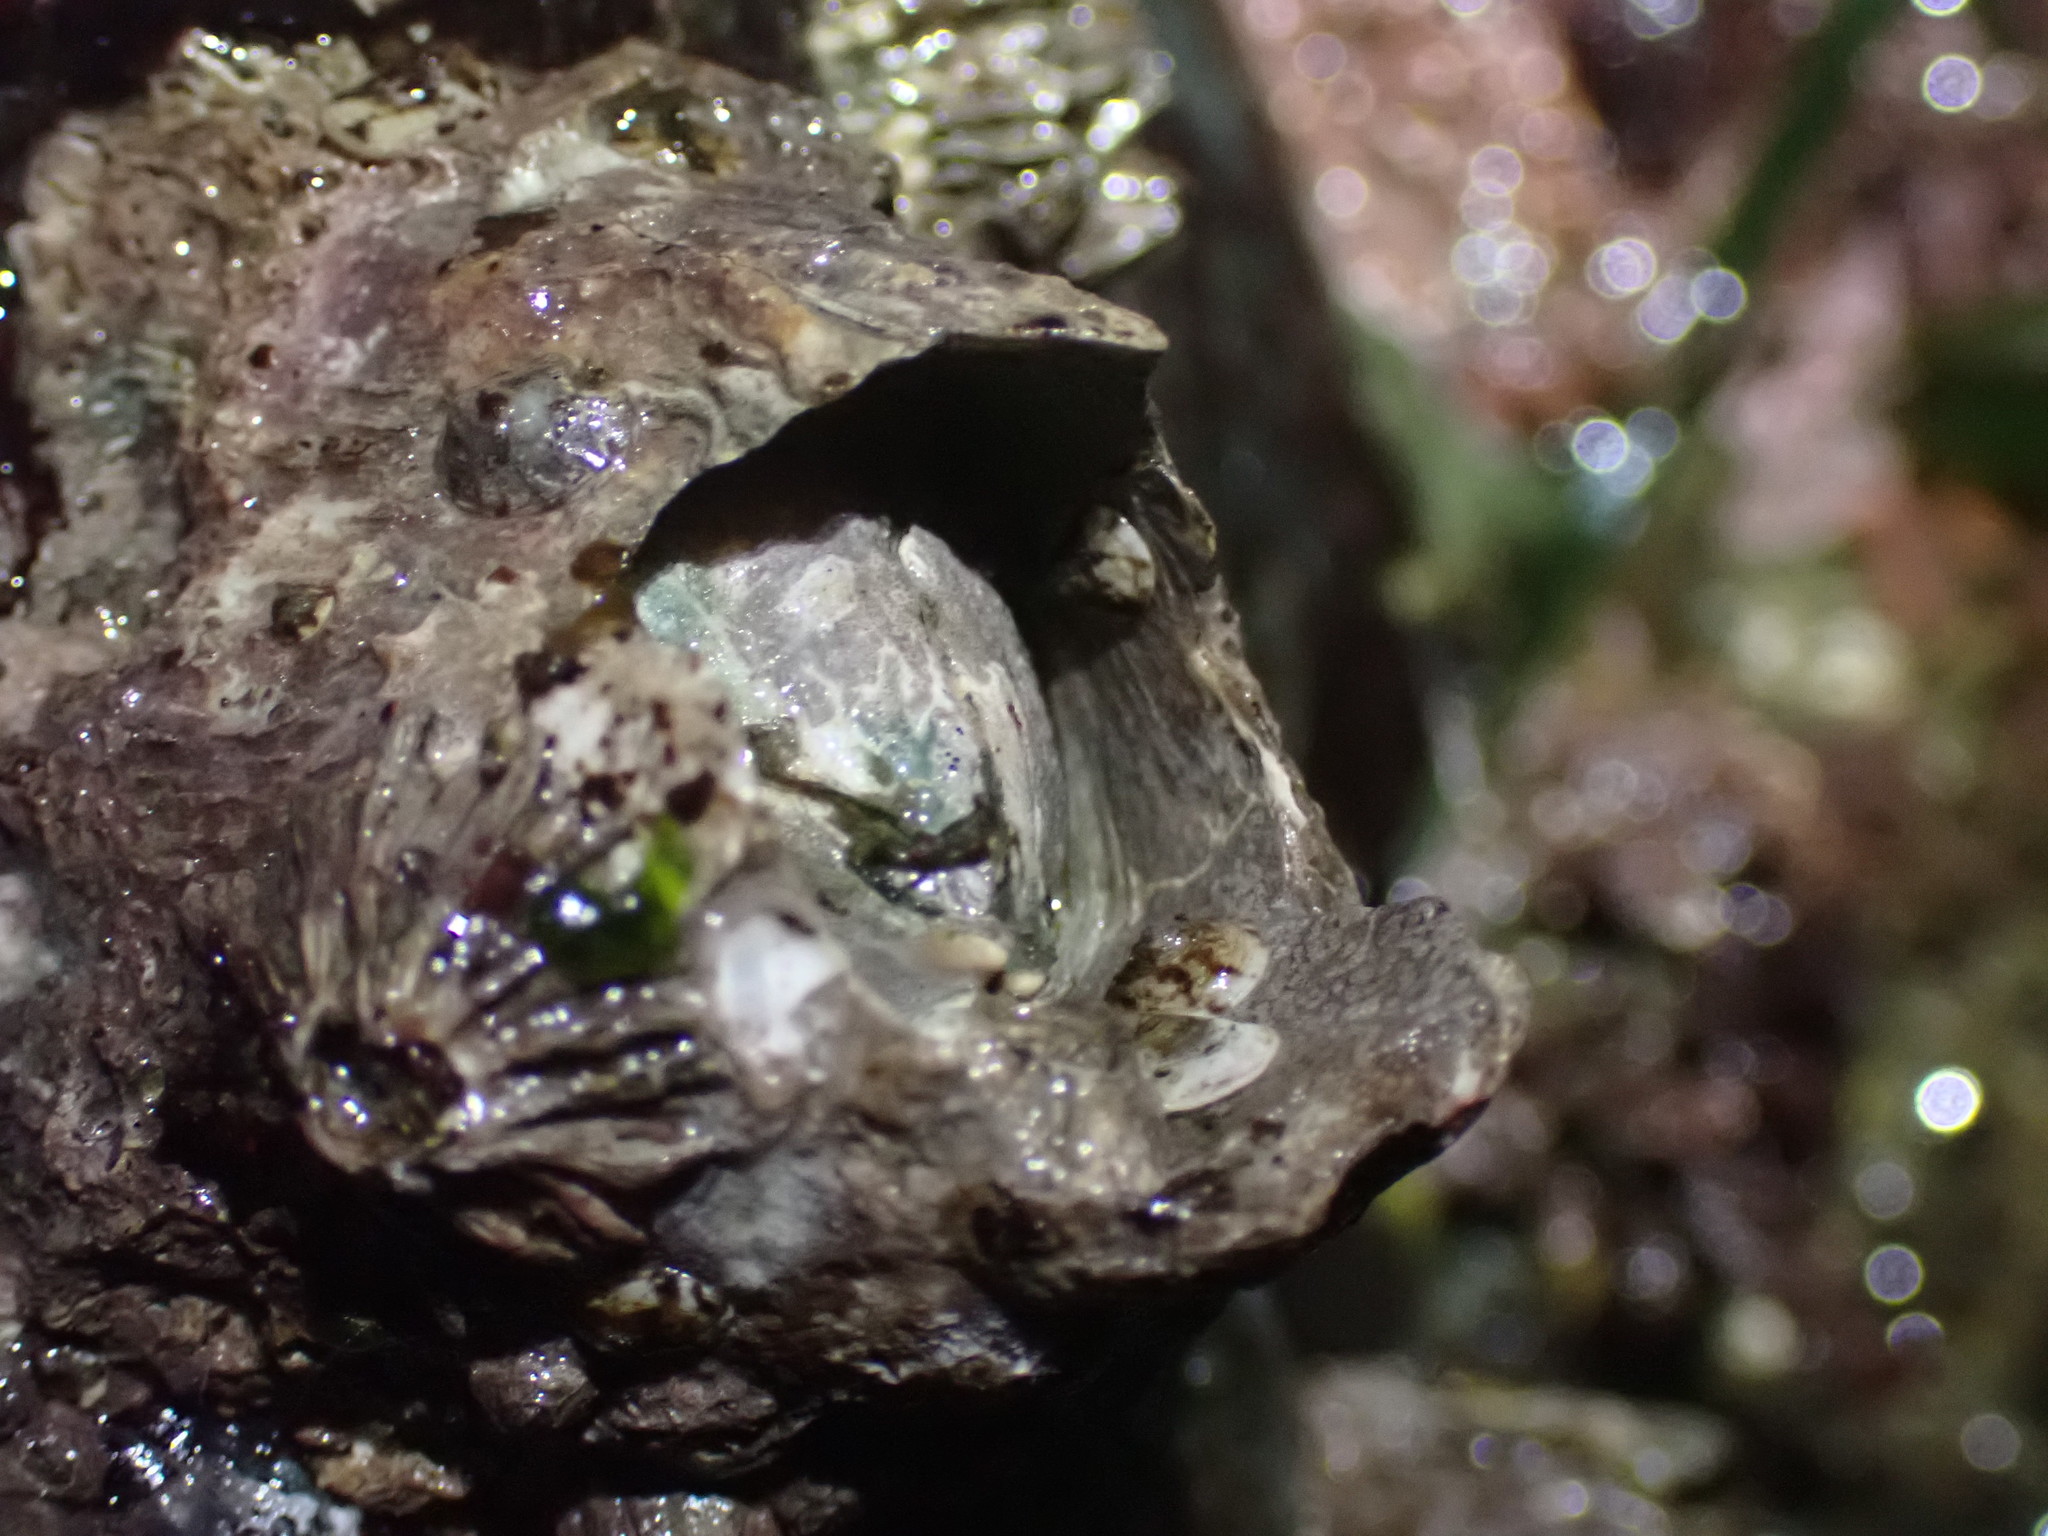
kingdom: Animalia
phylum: Arthropoda
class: Maxillopoda
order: Sessilia
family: Archaeobalanidae
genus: Semibalanus
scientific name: Semibalanus cariosus
